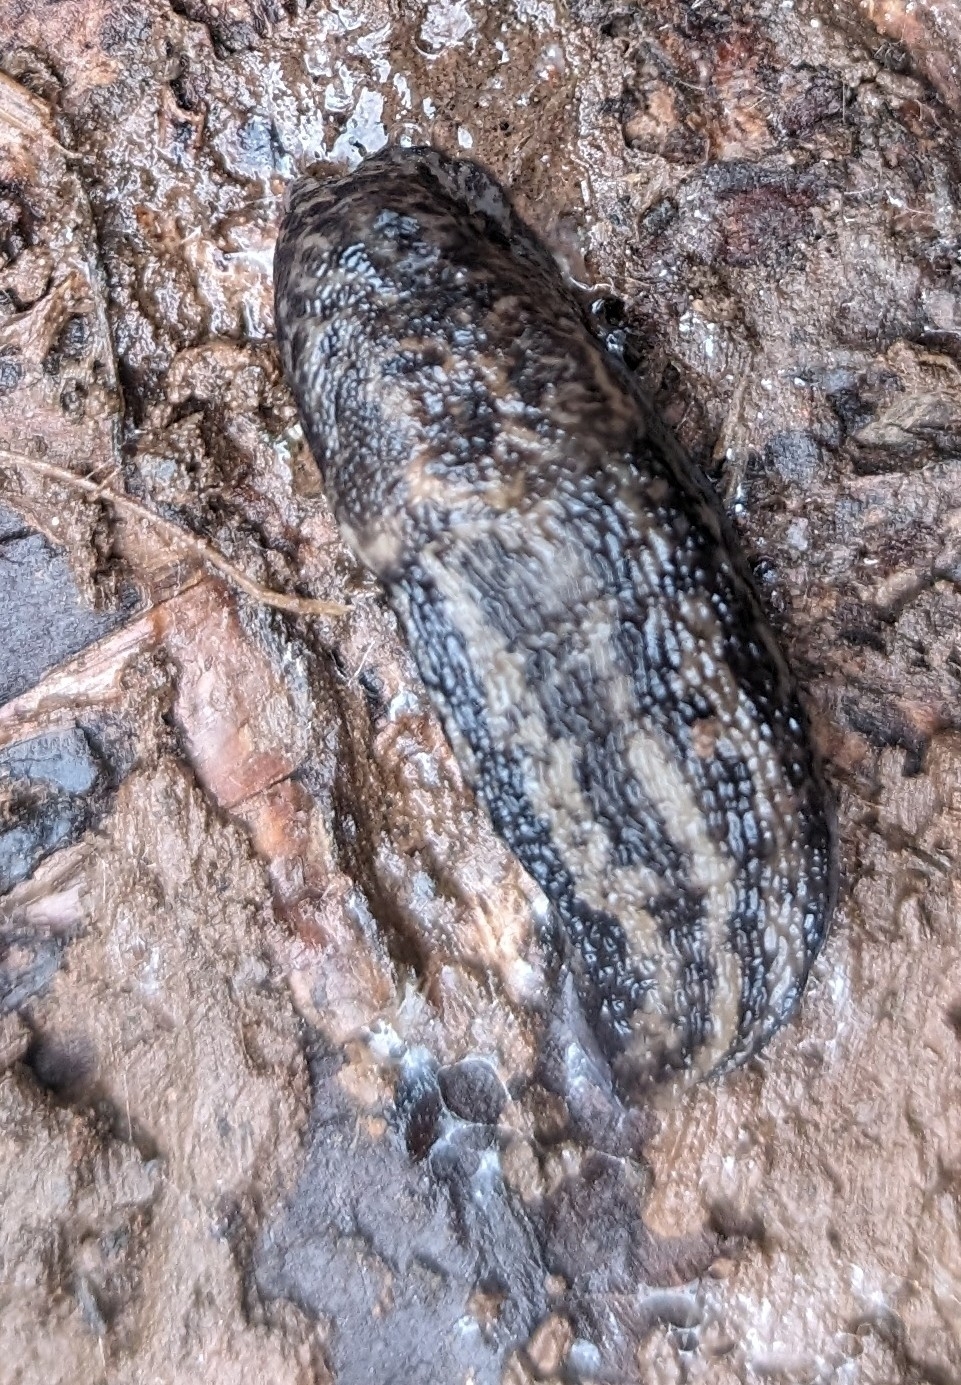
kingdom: Animalia
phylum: Mollusca
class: Gastropoda
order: Stylommatophora
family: Limacidae
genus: Limax
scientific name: Limax maximus
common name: Great grey slug
